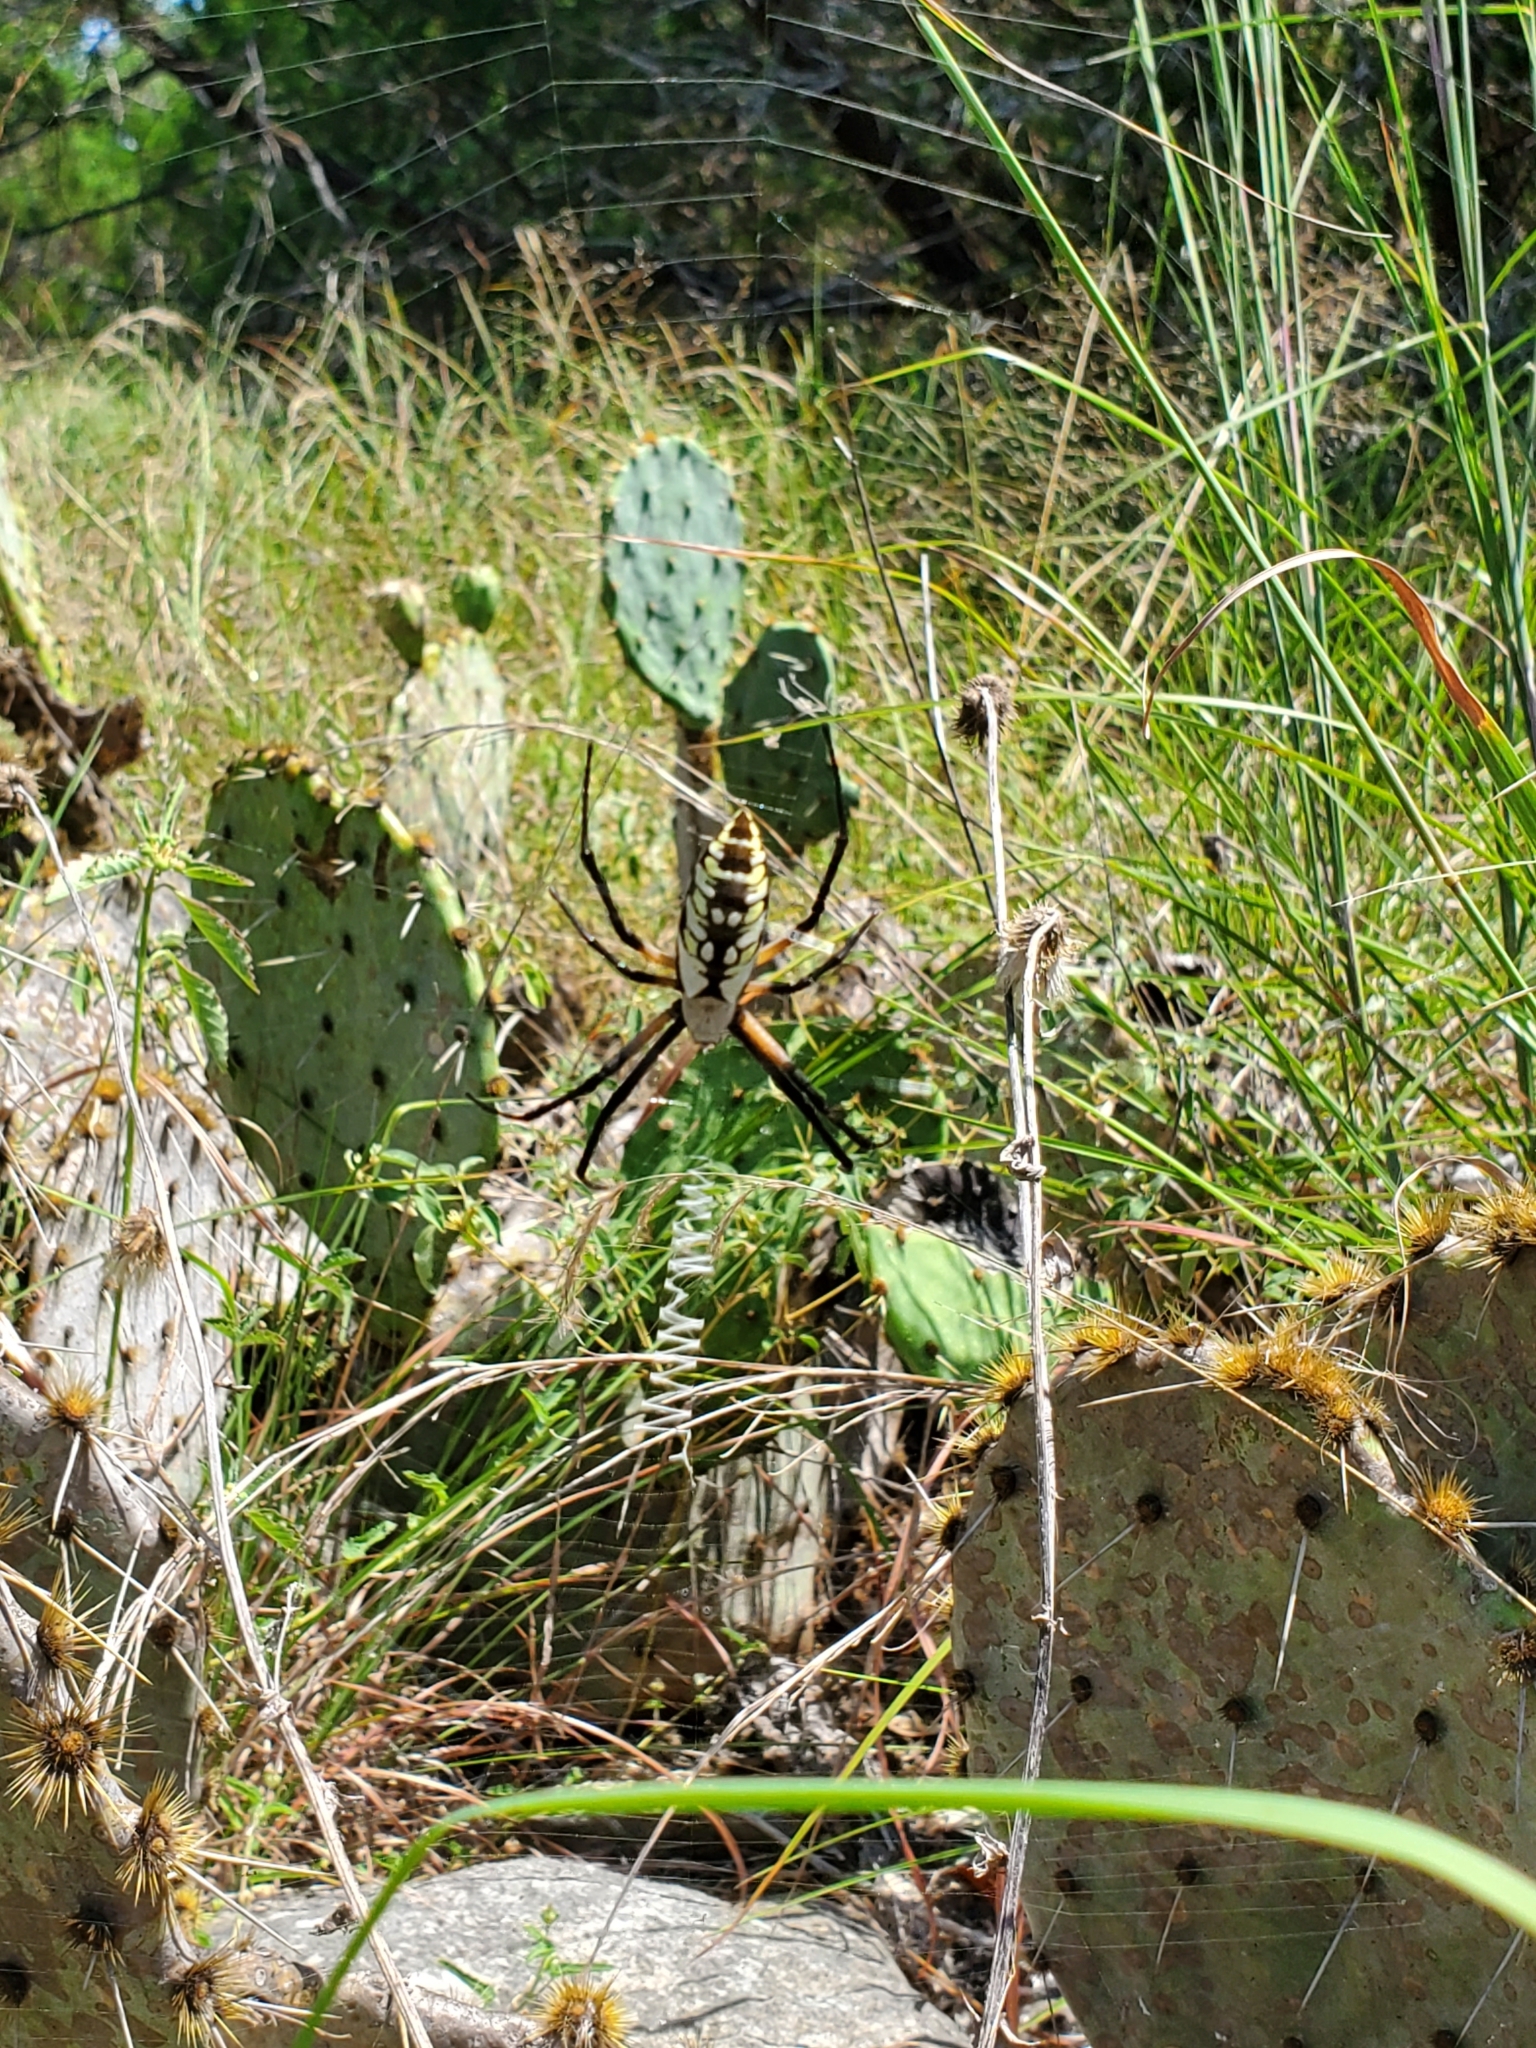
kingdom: Animalia
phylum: Arthropoda
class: Arachnida
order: Araneae
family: Araneidae
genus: Argiope
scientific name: Argiope aurantia
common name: Orb weavers
